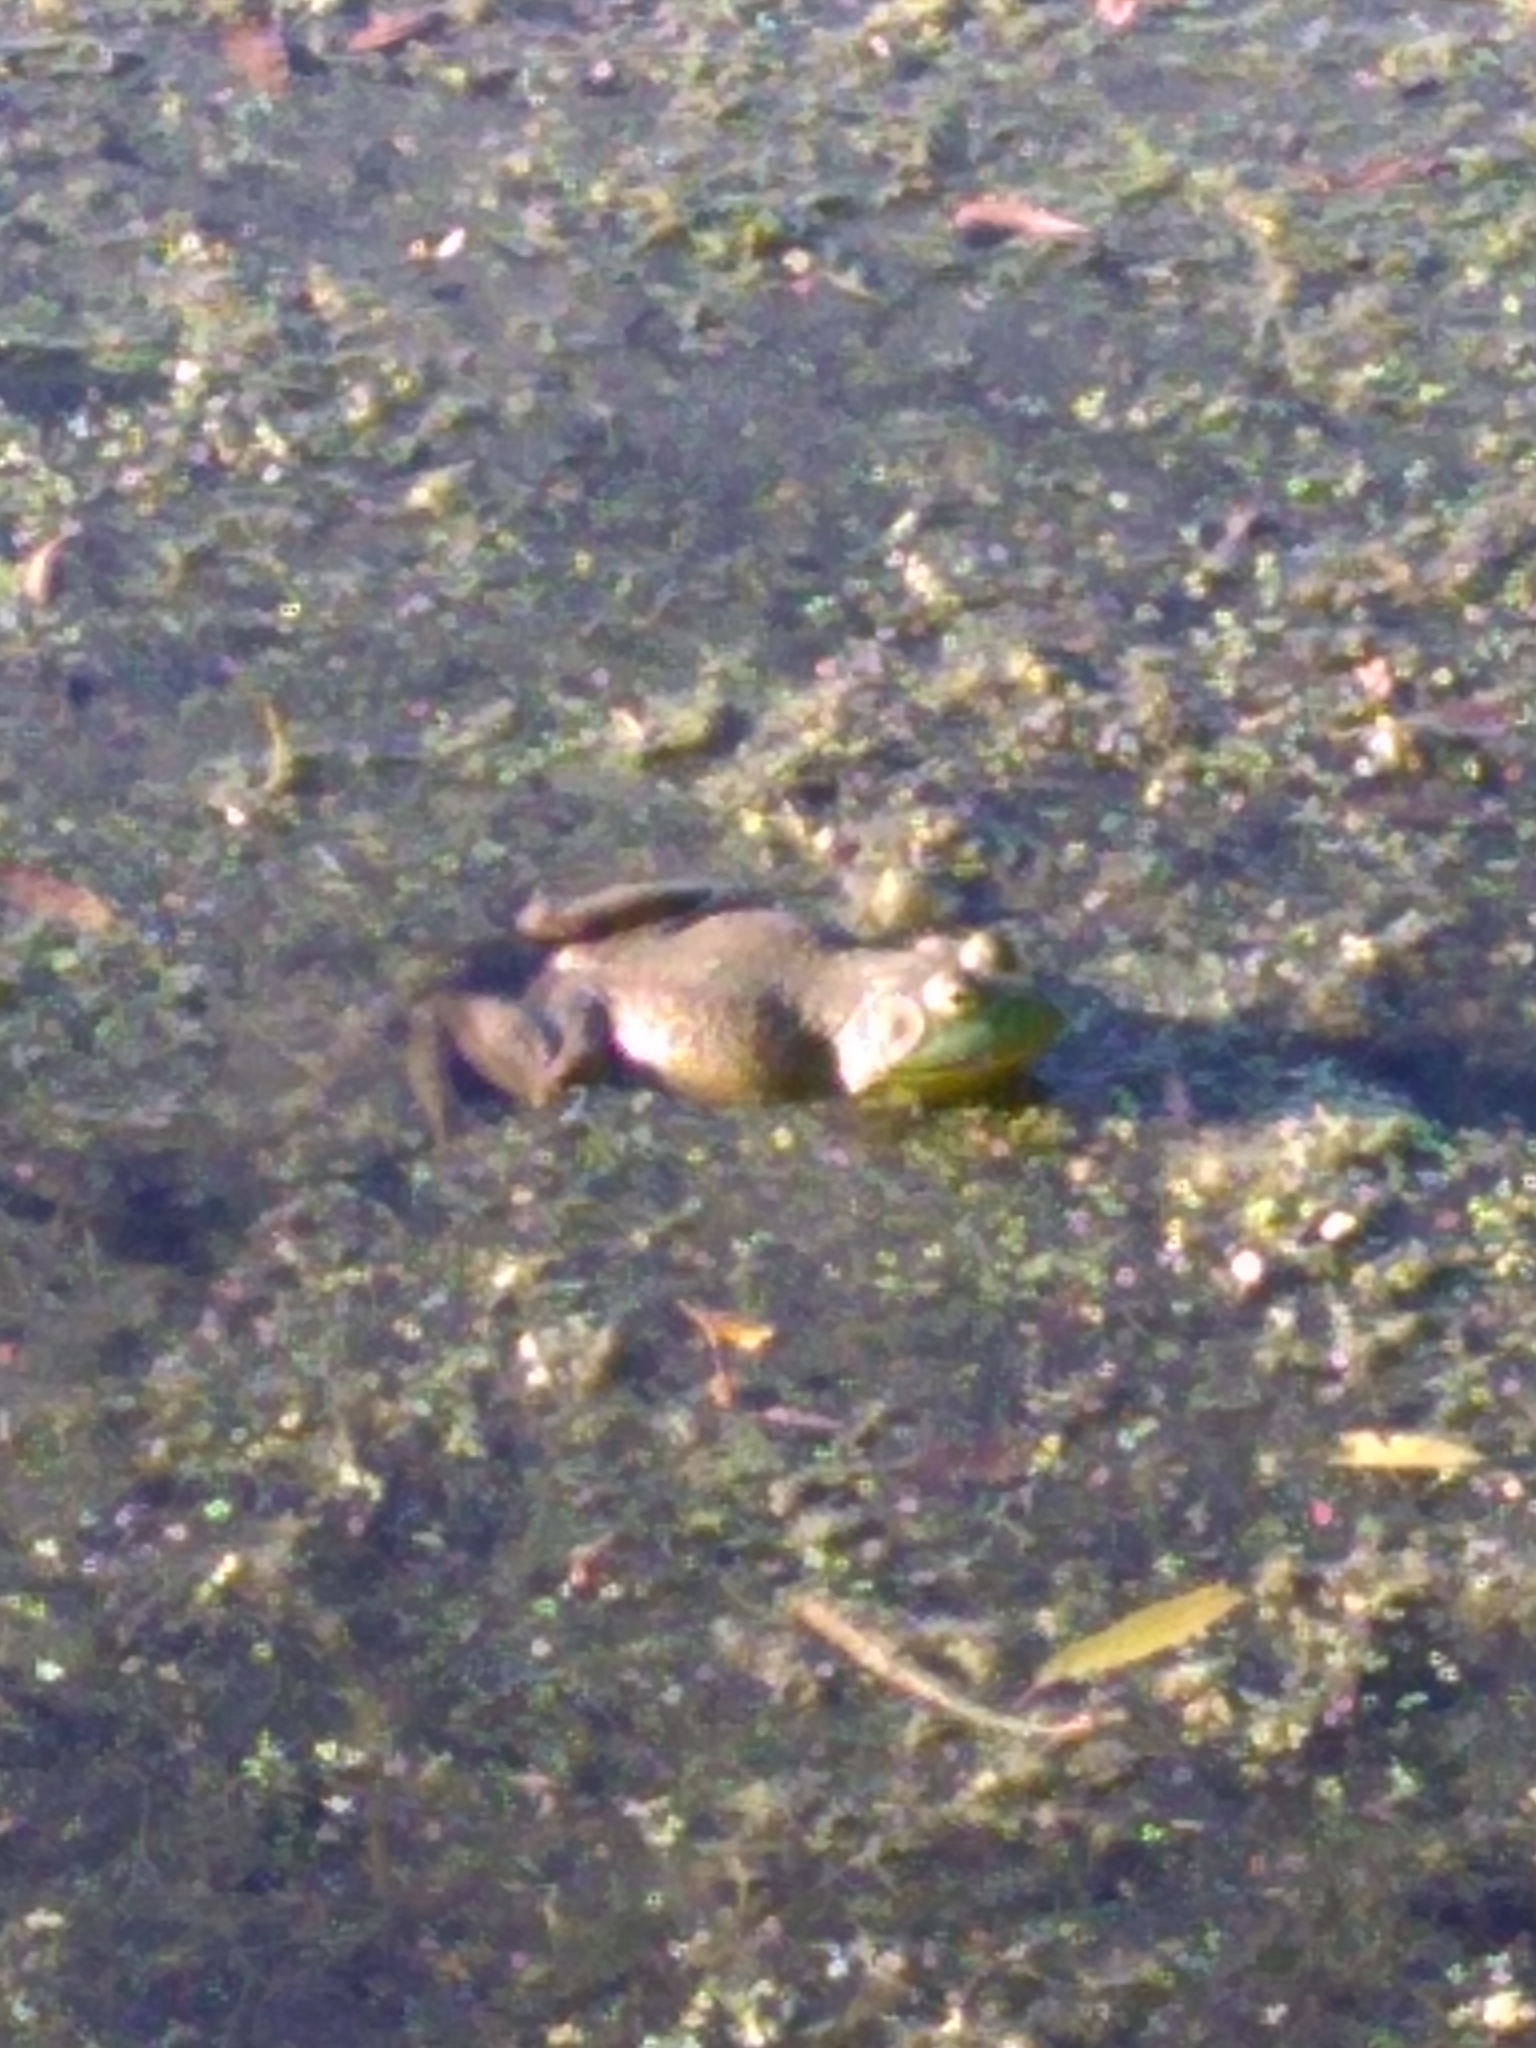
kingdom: Animalia
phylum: Chordata
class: Amphibia
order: Anura
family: Ranidae
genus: Lithobates
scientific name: Lithobates catesbeianus
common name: American bullfrog
